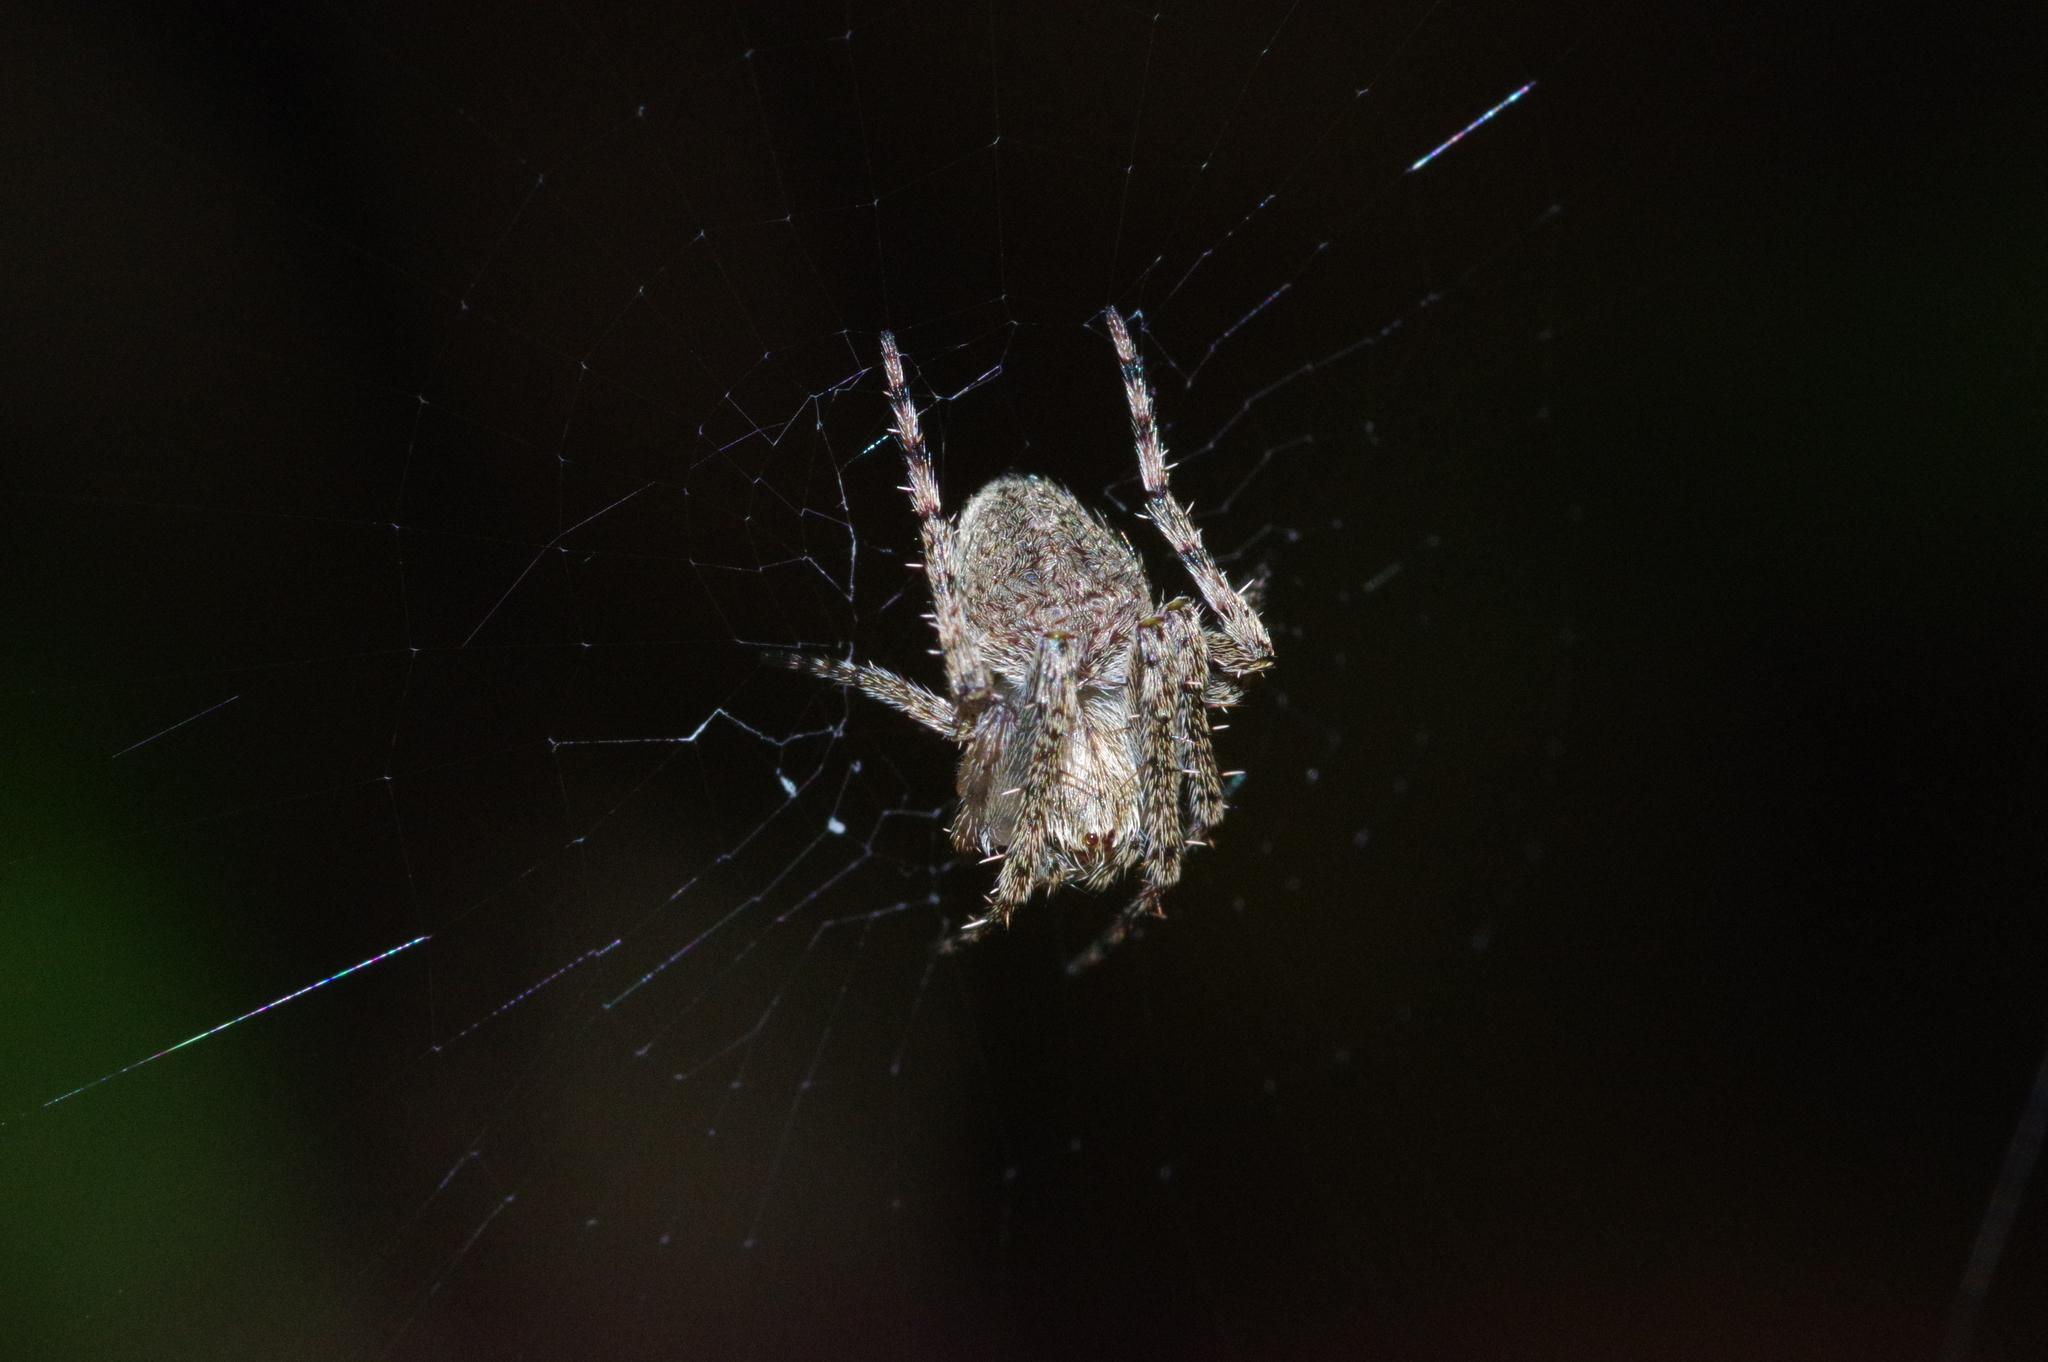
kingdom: Animalia
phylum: Arthropoda
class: Arachnida
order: Araneae
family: Araneidae
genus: Araneus
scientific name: Araneus ventricosus
